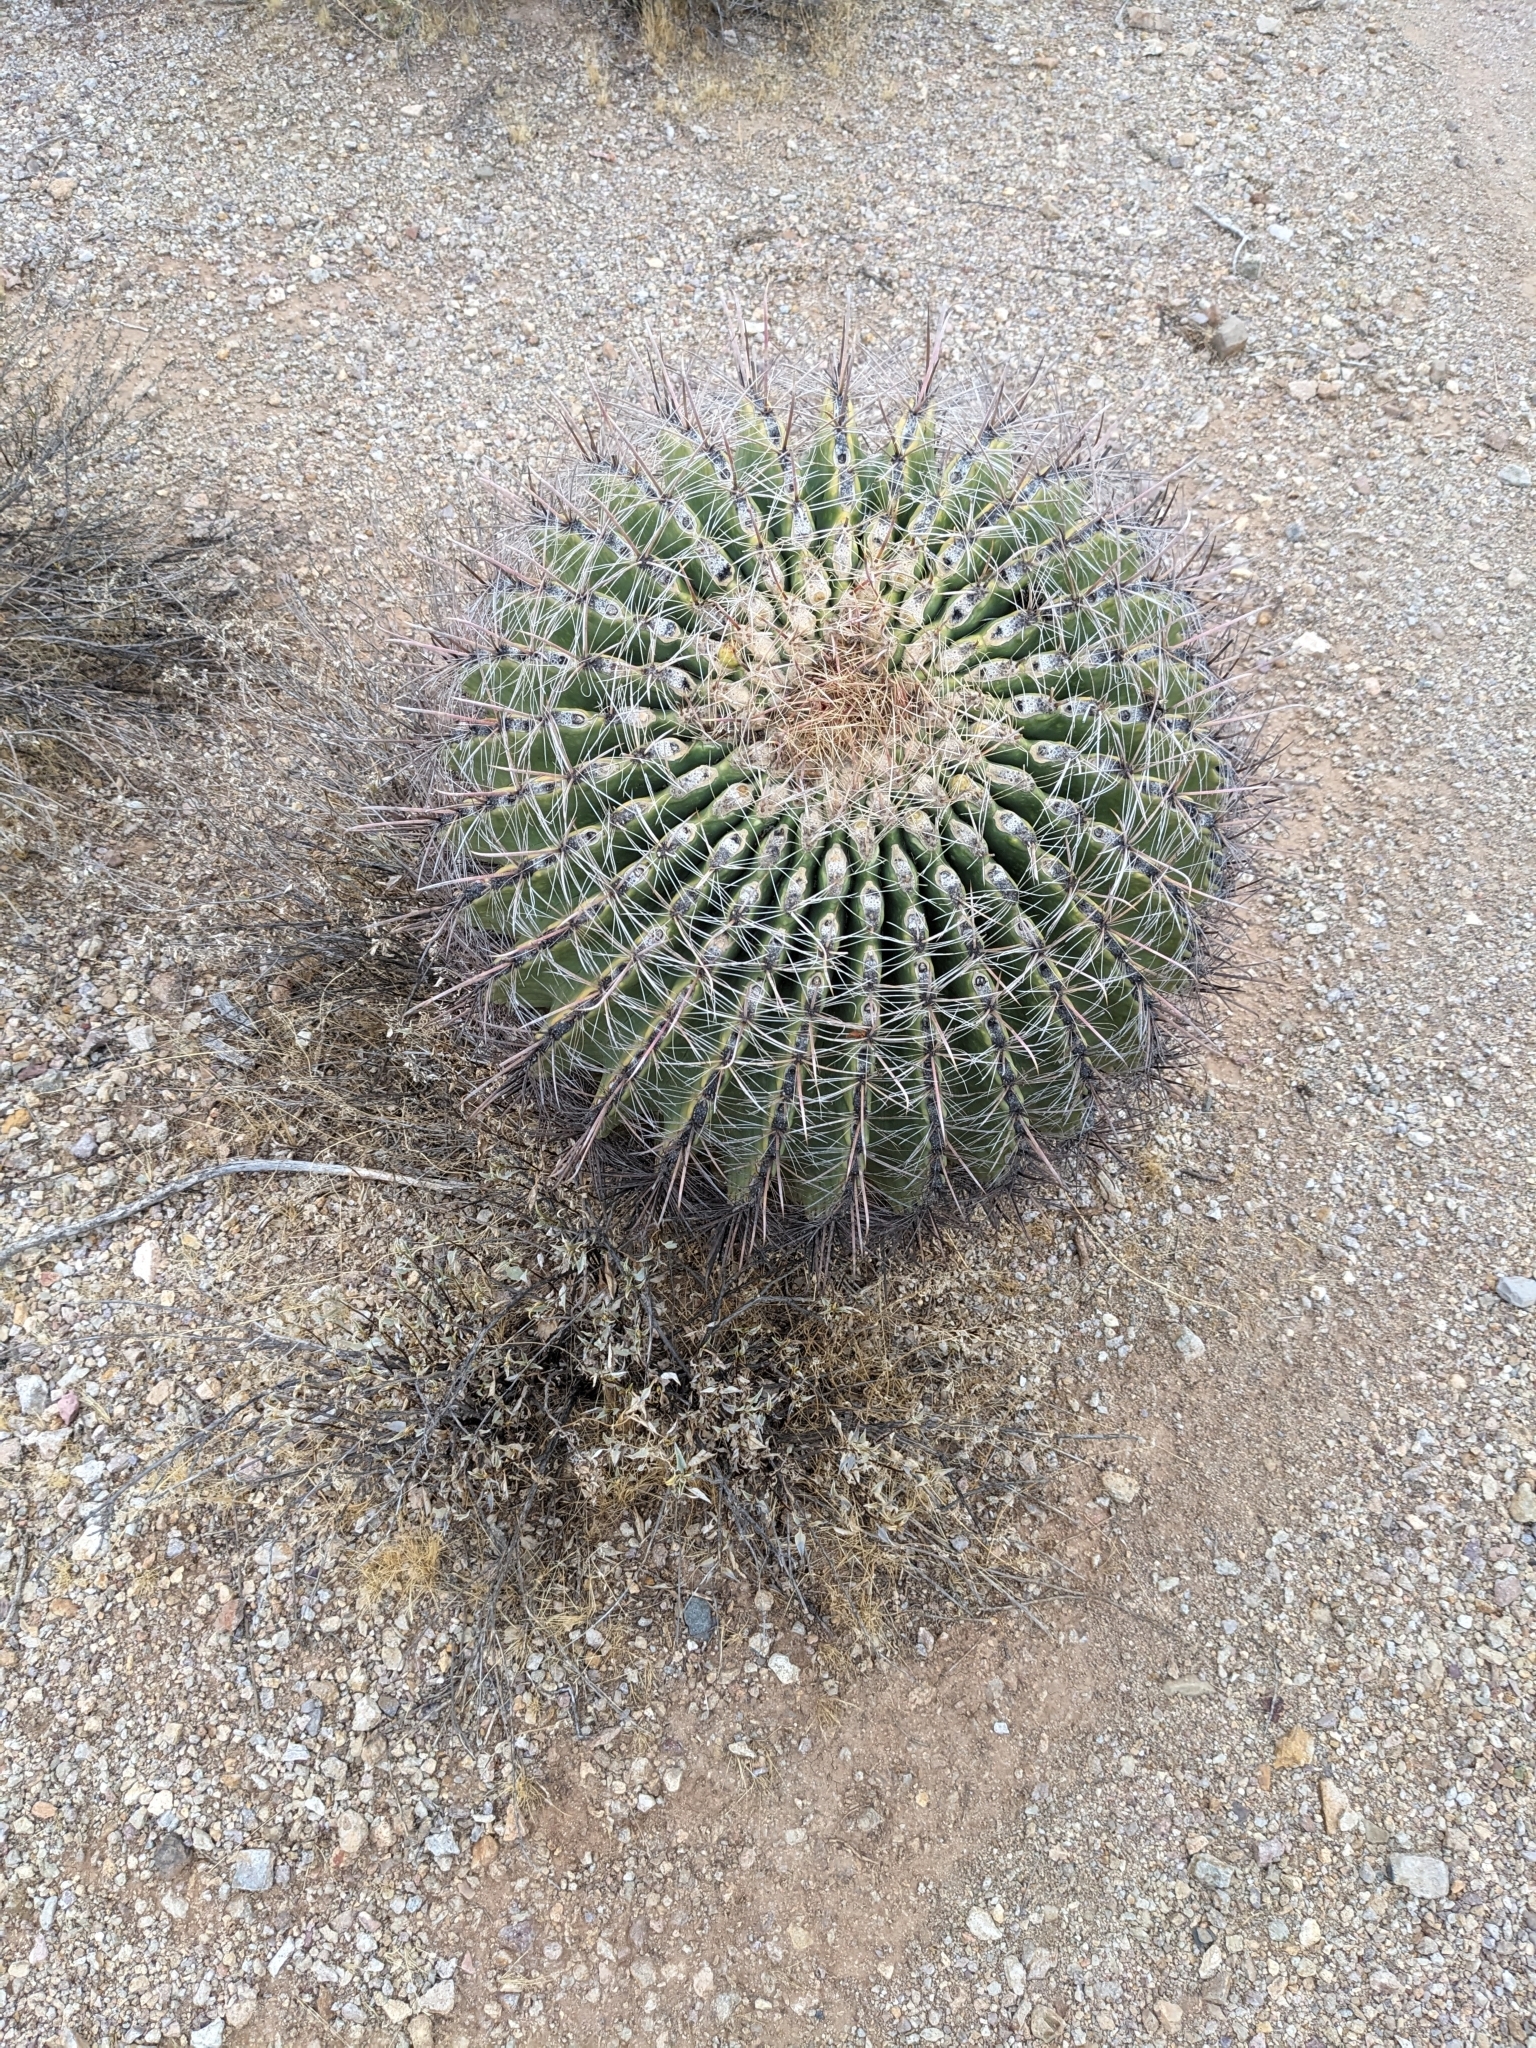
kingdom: Plantae
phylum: Tracheophyta
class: Magnoliopsida
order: Caryophyllales
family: Cactaceae
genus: Ferocactus
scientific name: Ferocactus wislizeni
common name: Candy barrel cactus
